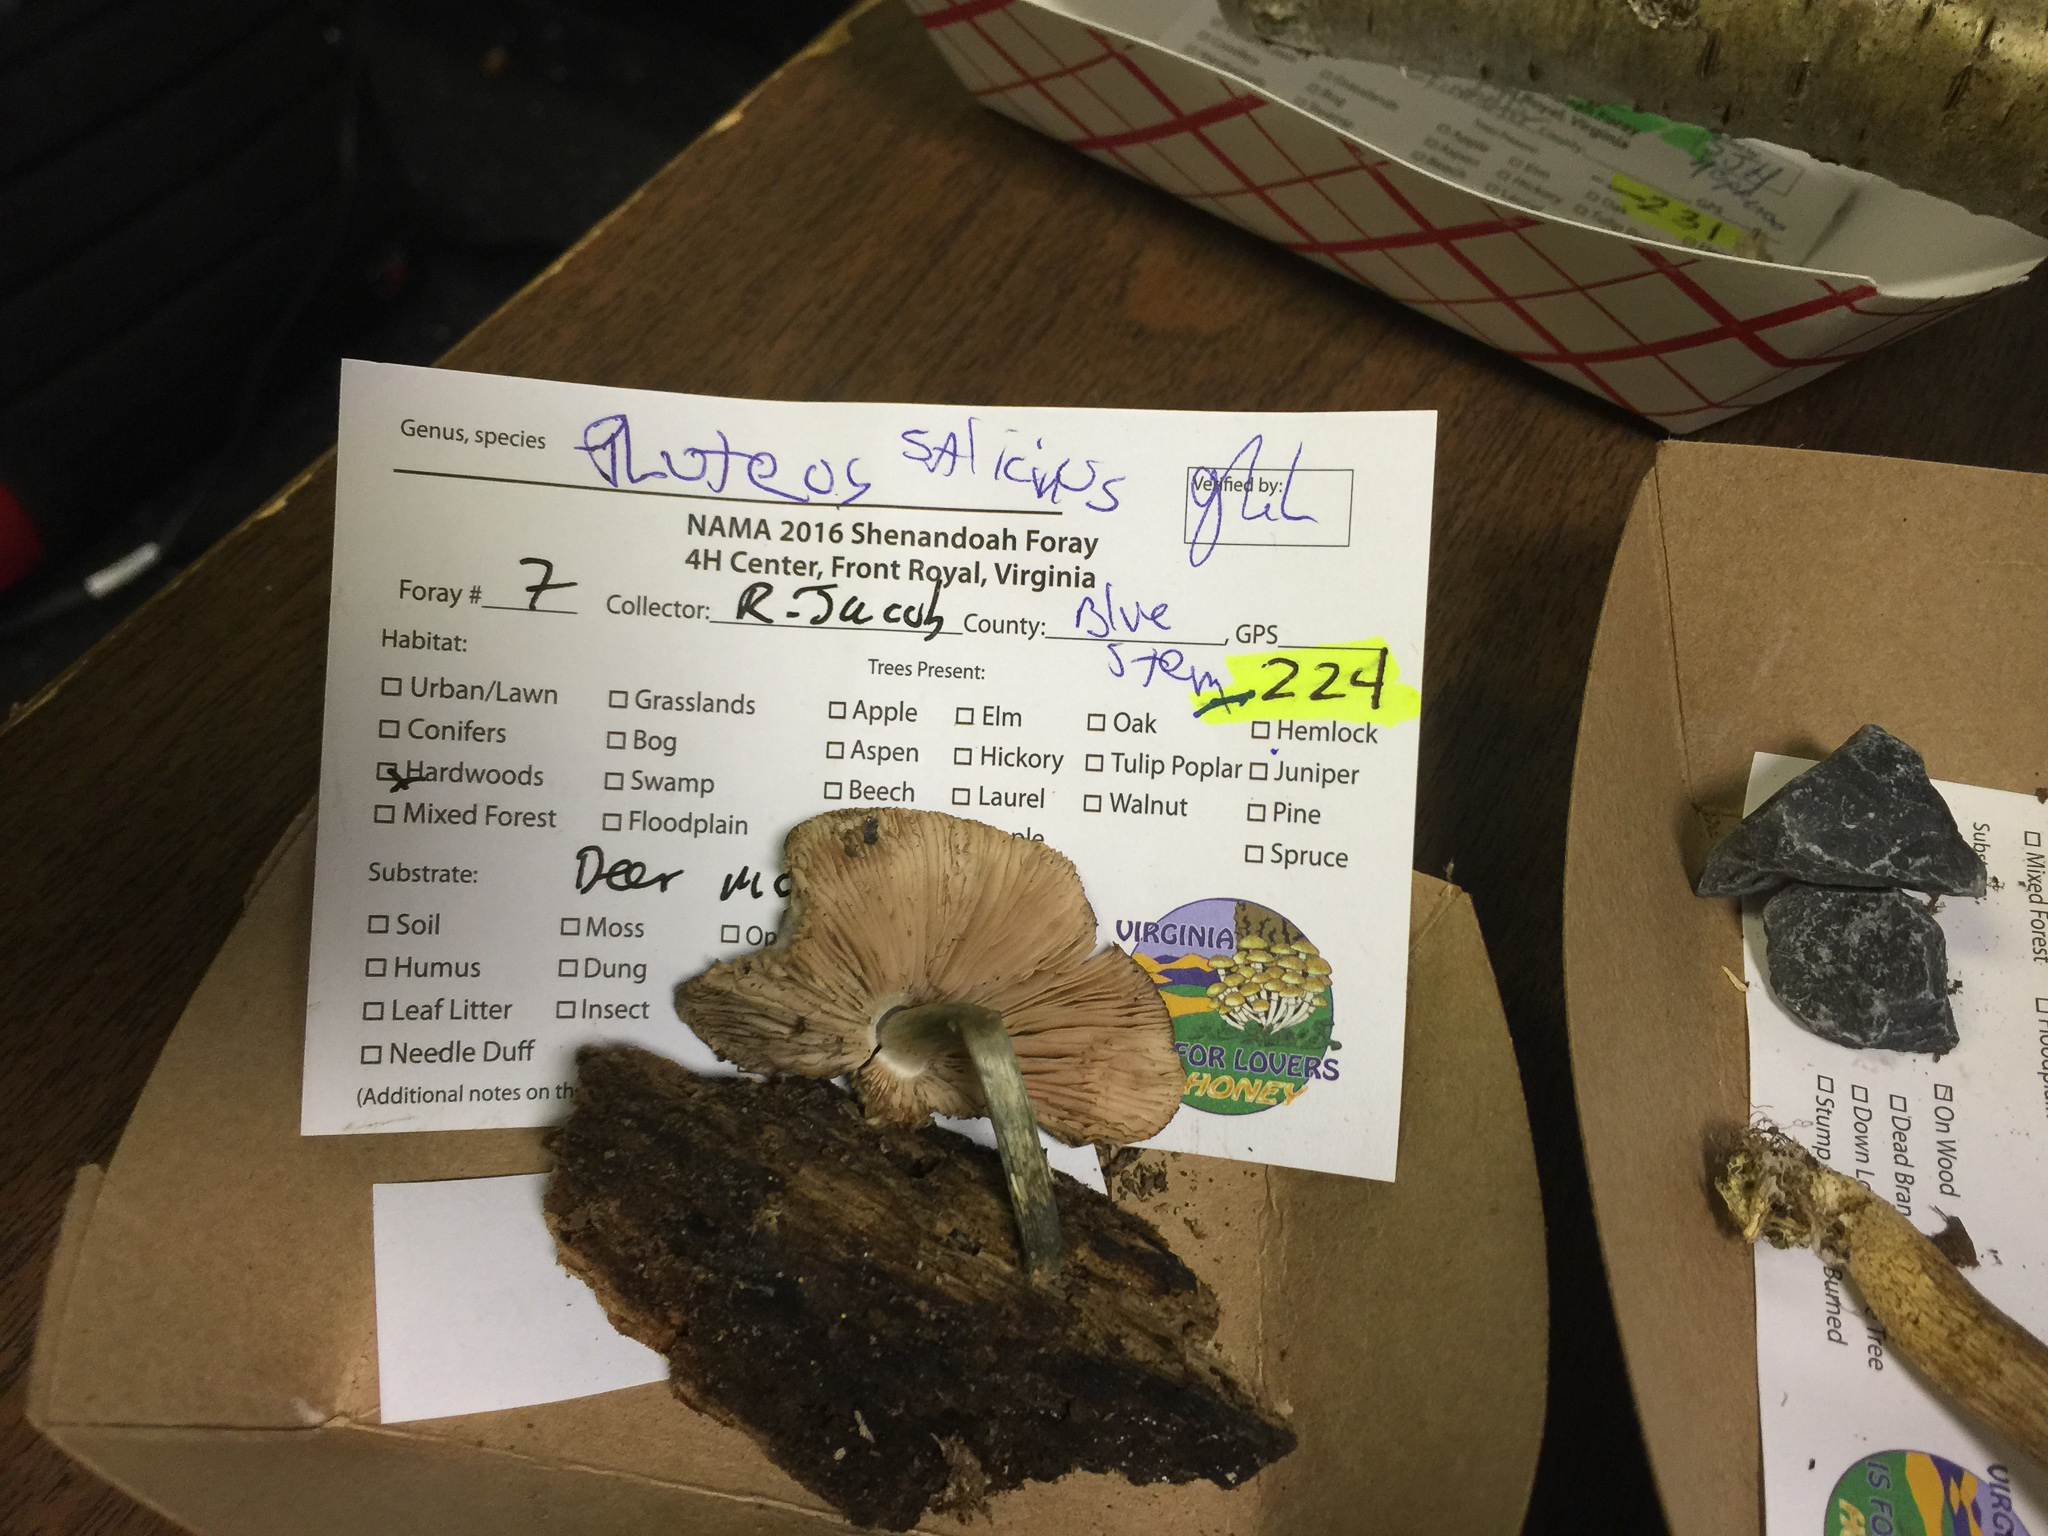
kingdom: Fungi
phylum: Basidiomycota
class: Agaricomycetes
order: Agaricales
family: Pluteaceae
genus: Pluteus
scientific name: Pluteus americanus
